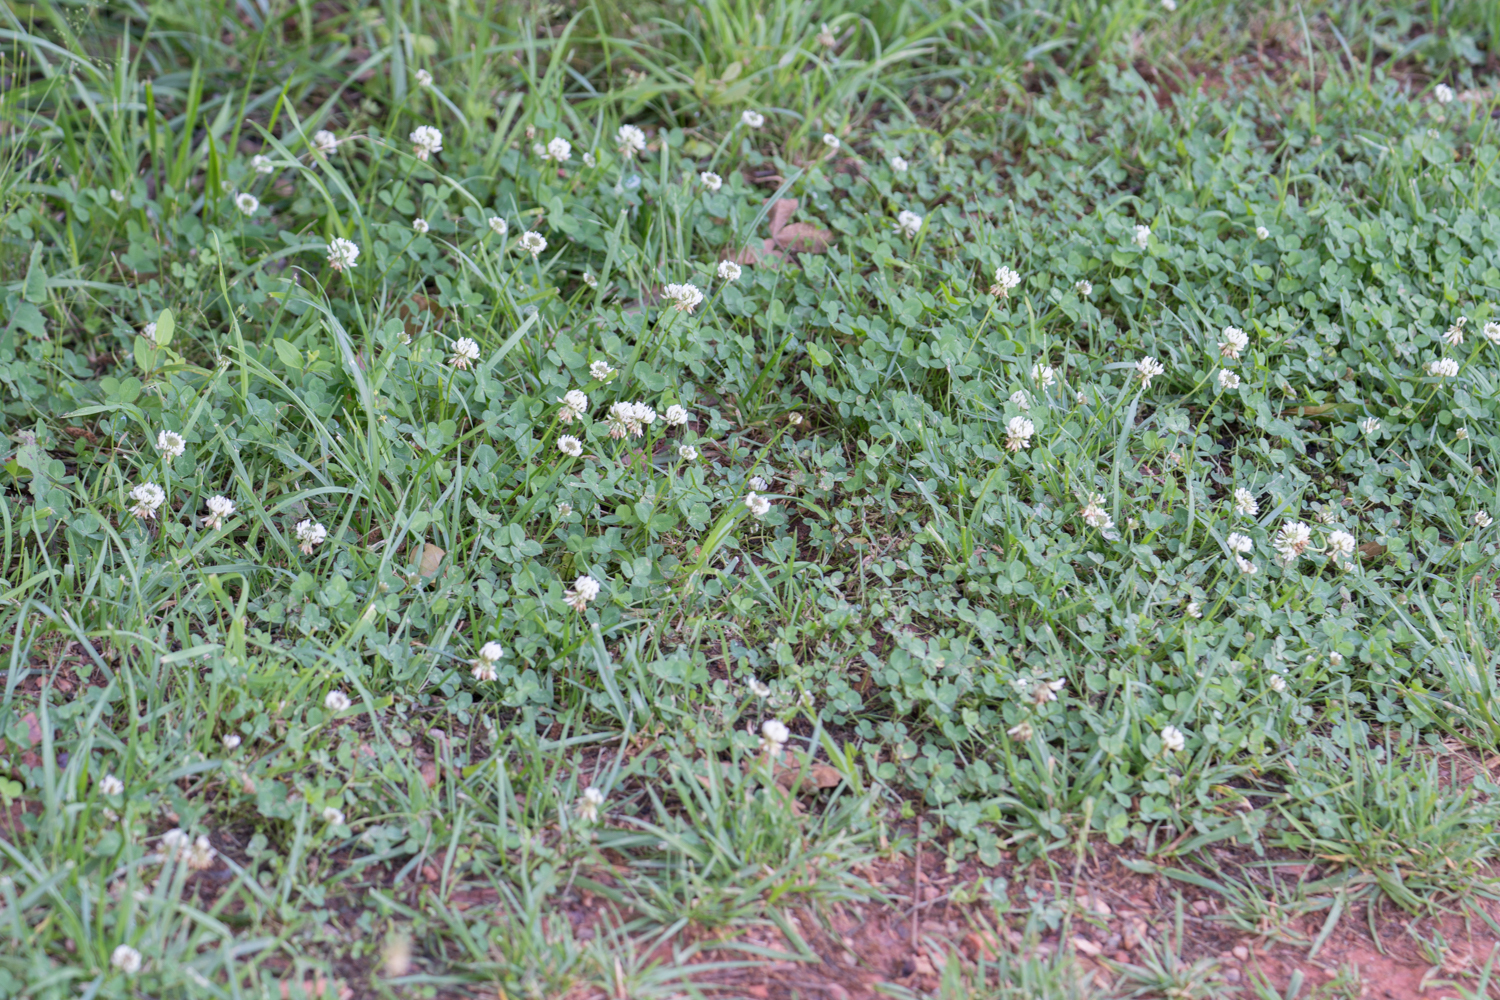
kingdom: Plantae
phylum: Tracheophyta
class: Magnoliopsida
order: Fabales
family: Fabaceae
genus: Trifolium
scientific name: Trifolium repens
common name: White clover
